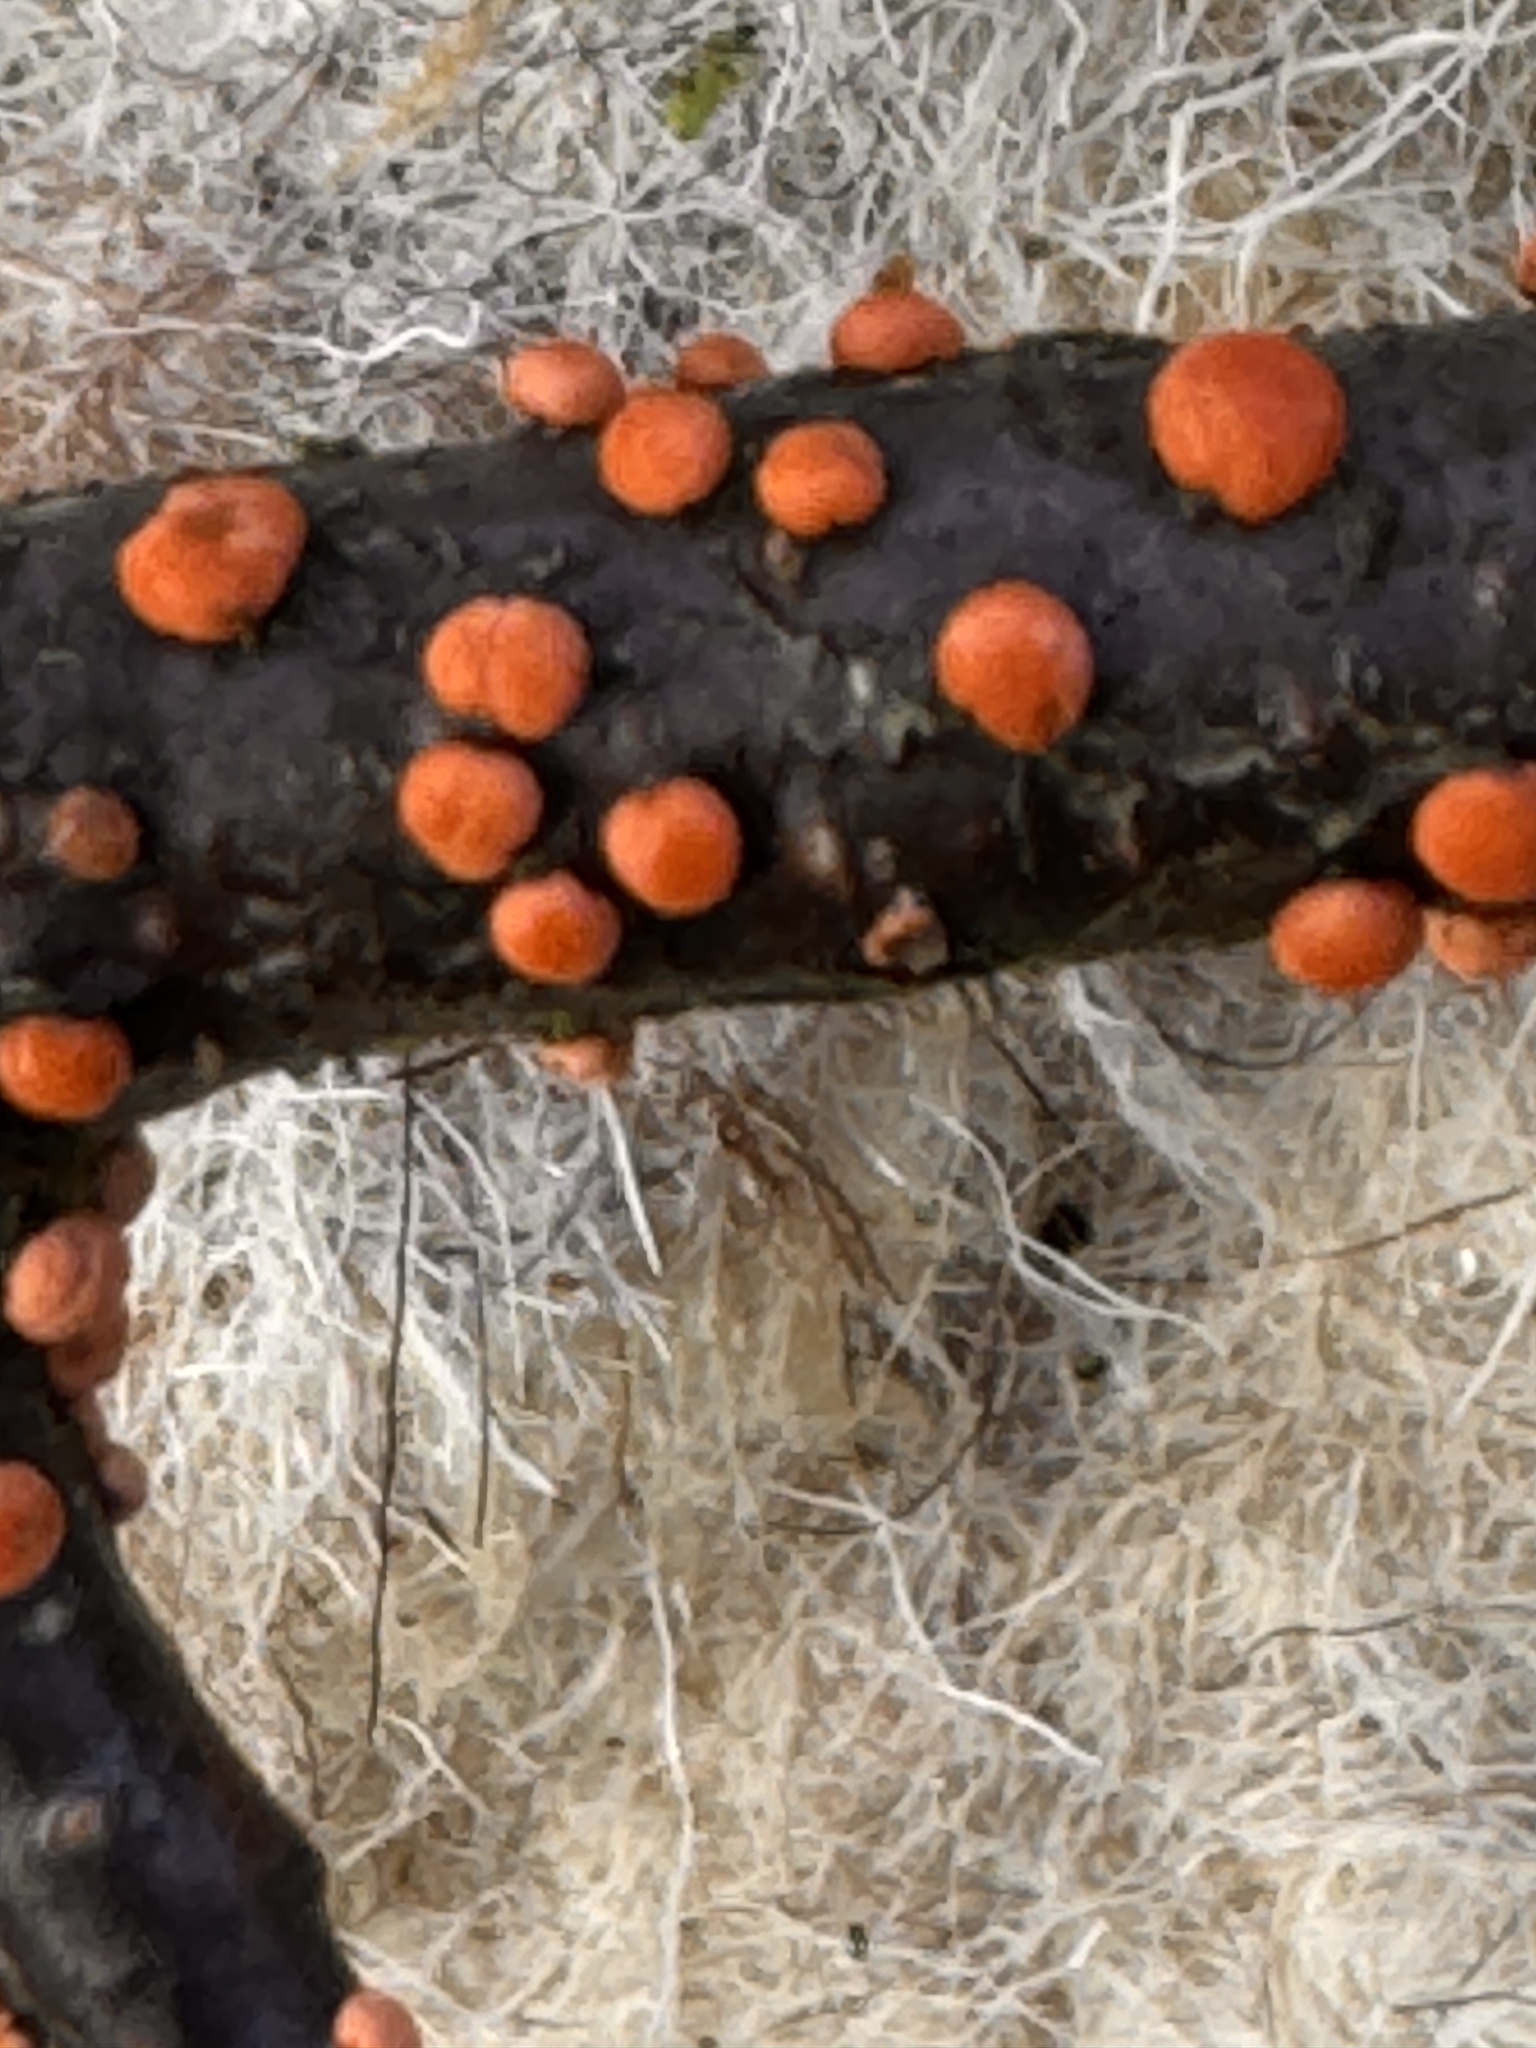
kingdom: Fungi
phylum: Ascomycota
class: Sordariomycetes
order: Hypocreales
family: Nectriaceae
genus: Nectria
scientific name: Nectria cinnabarina
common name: Coral spot
